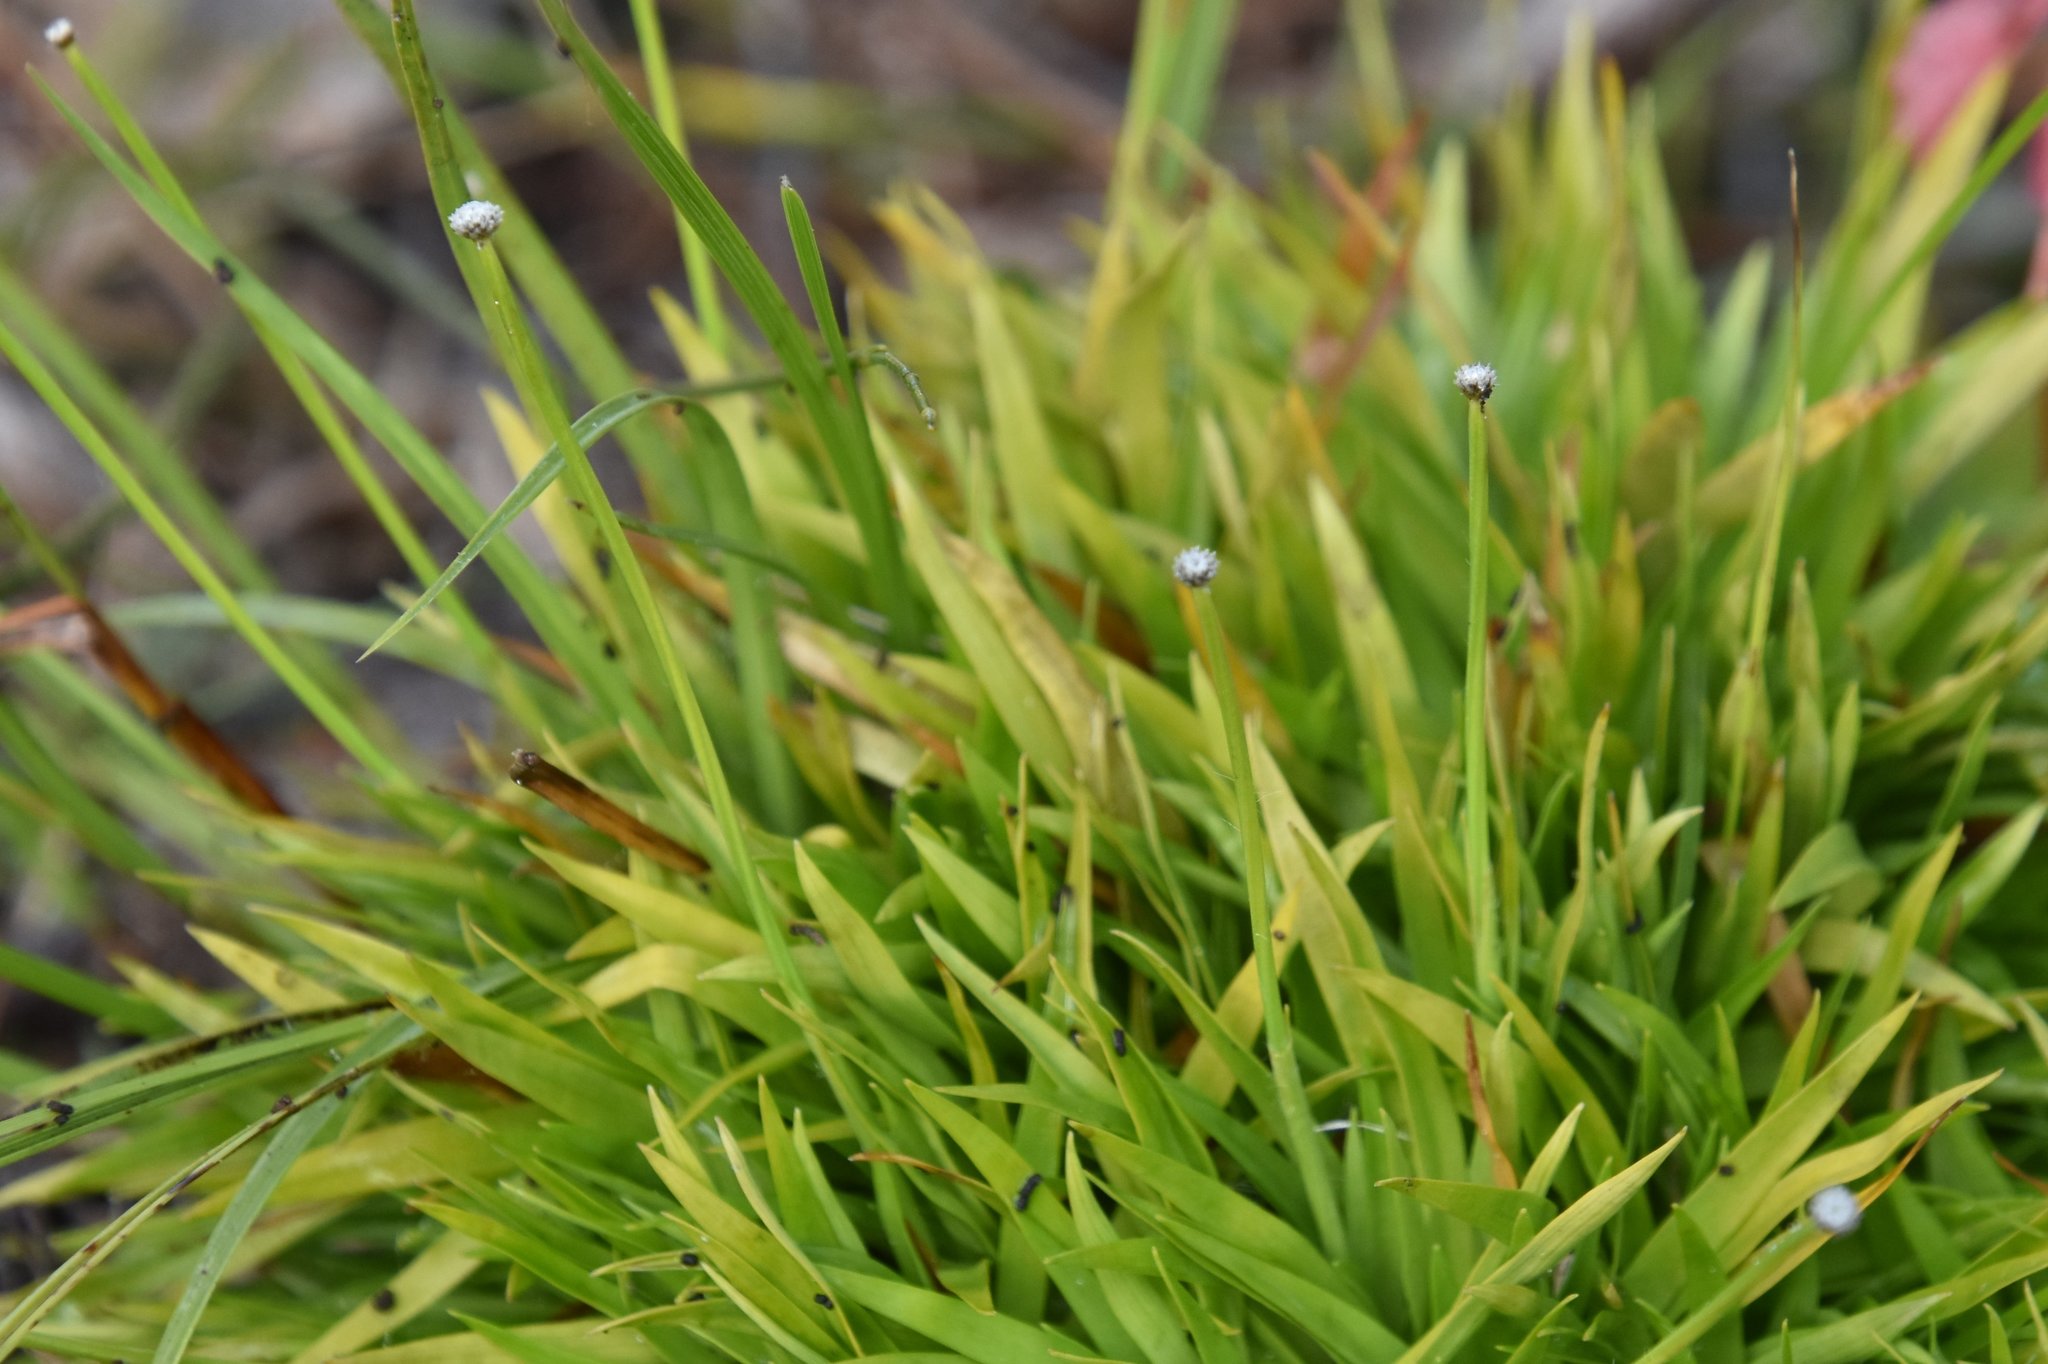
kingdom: Plantae
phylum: Tracheophyta
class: Liliopsida
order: Poales
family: Eriocaulaceae
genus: Paepalanthus
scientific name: Paepalanthus anceps
